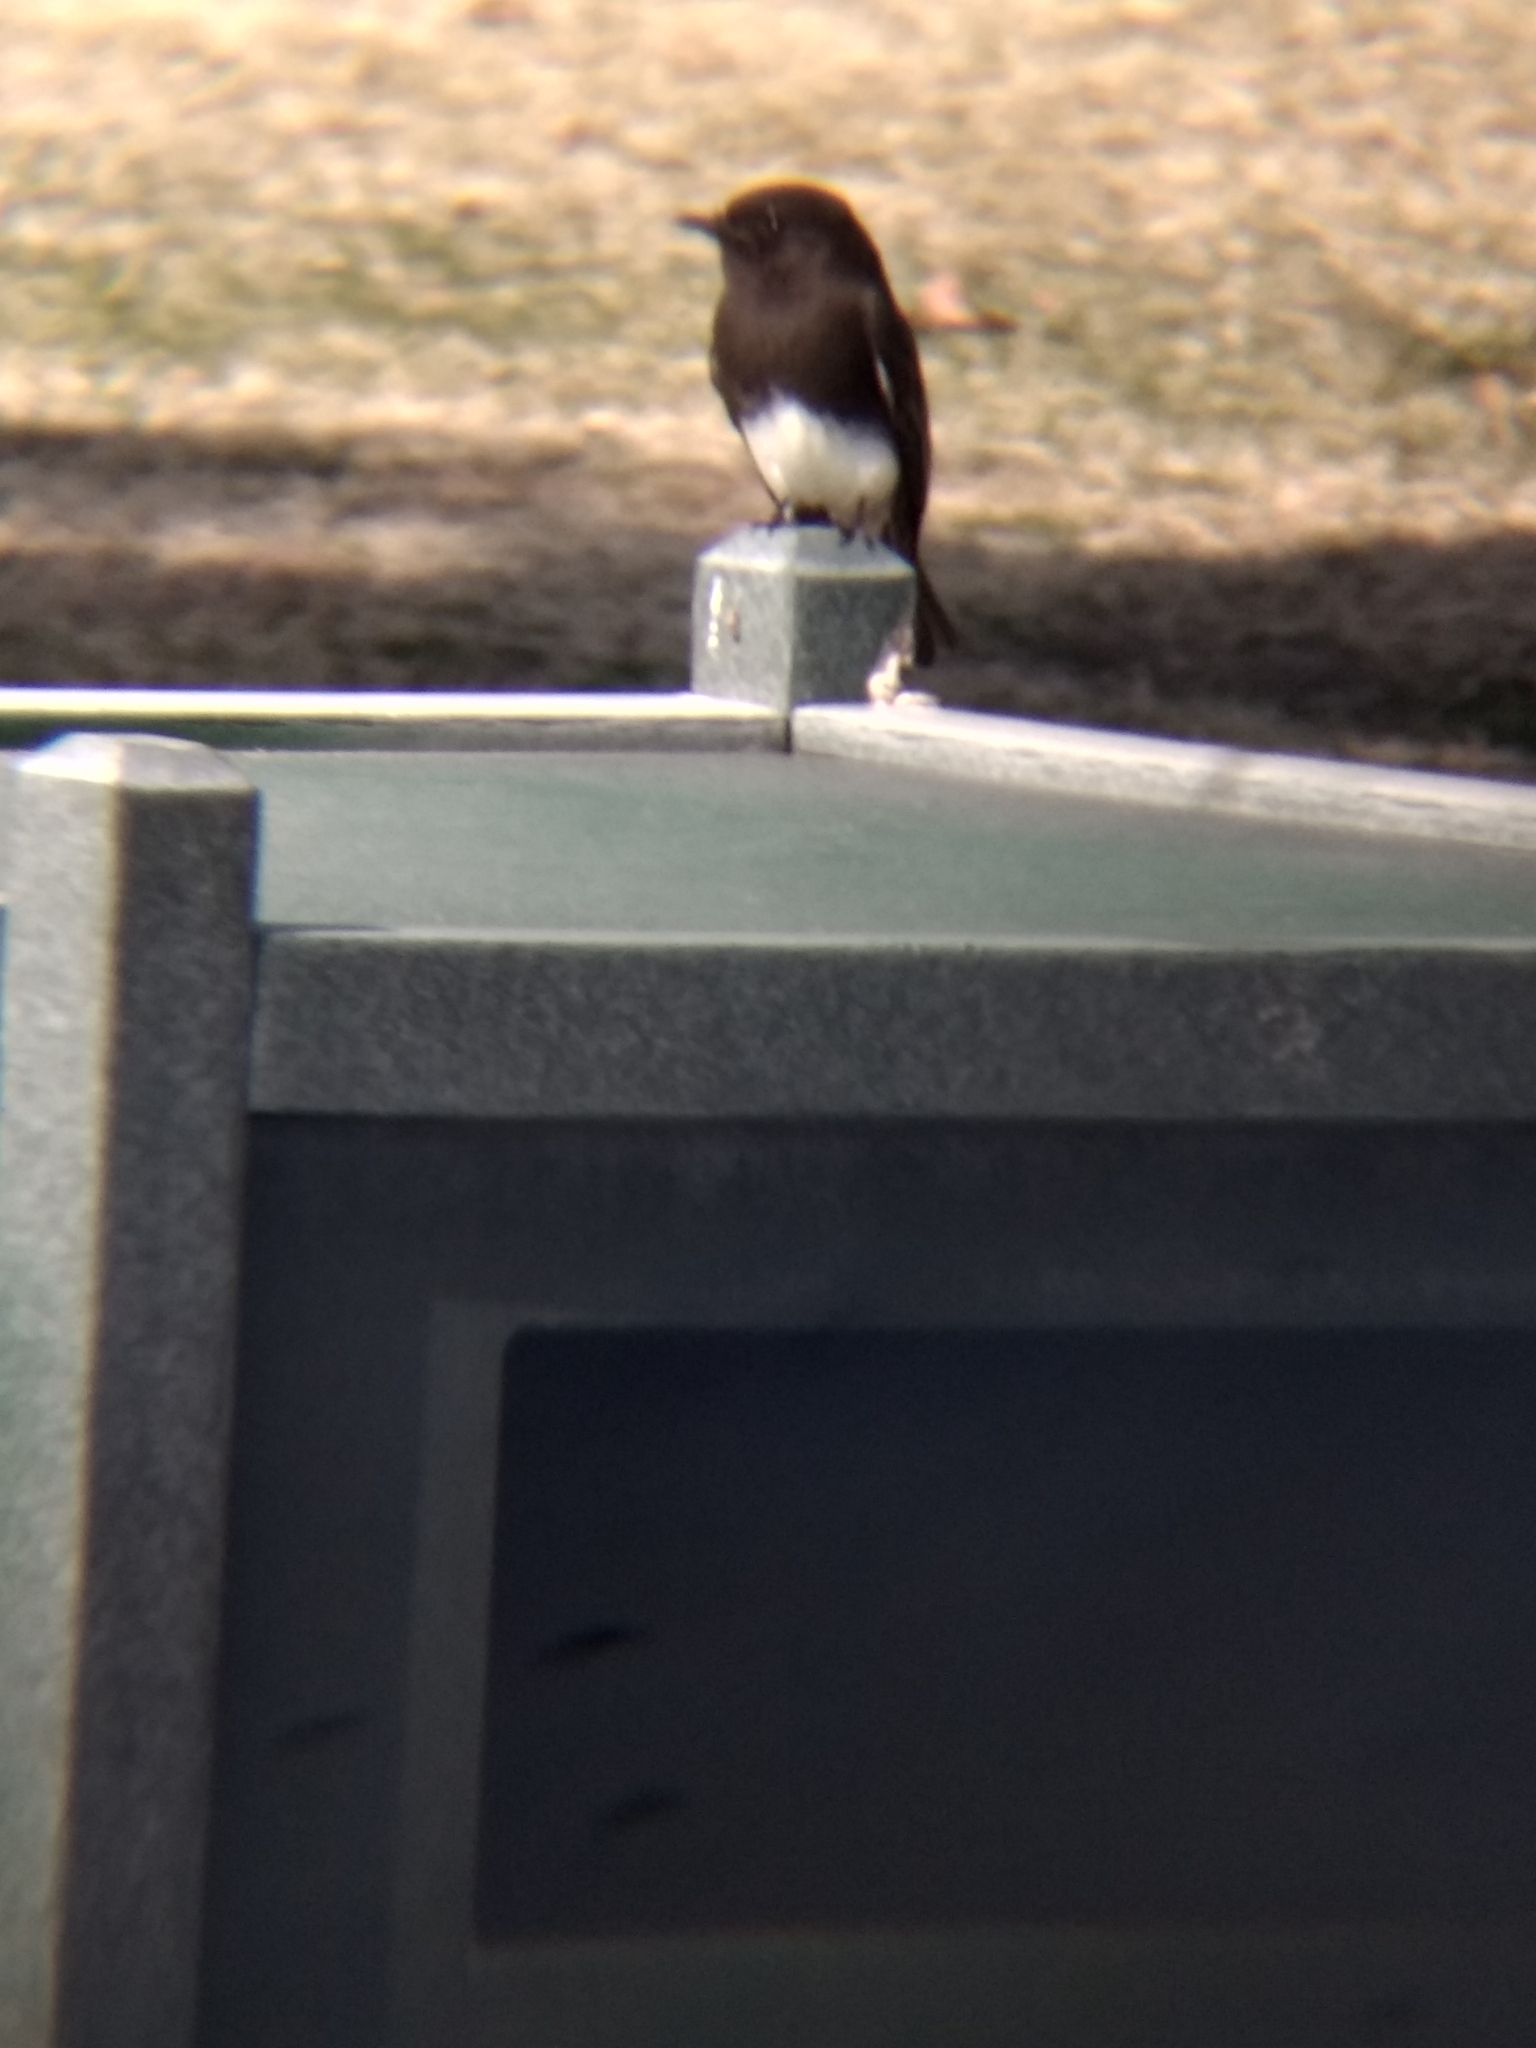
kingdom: Animalia
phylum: Chordata
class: Aves
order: Passeriformes
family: Tyrannidae
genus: Sayornis
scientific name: Sayornis nigricans
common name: Black phoebe
